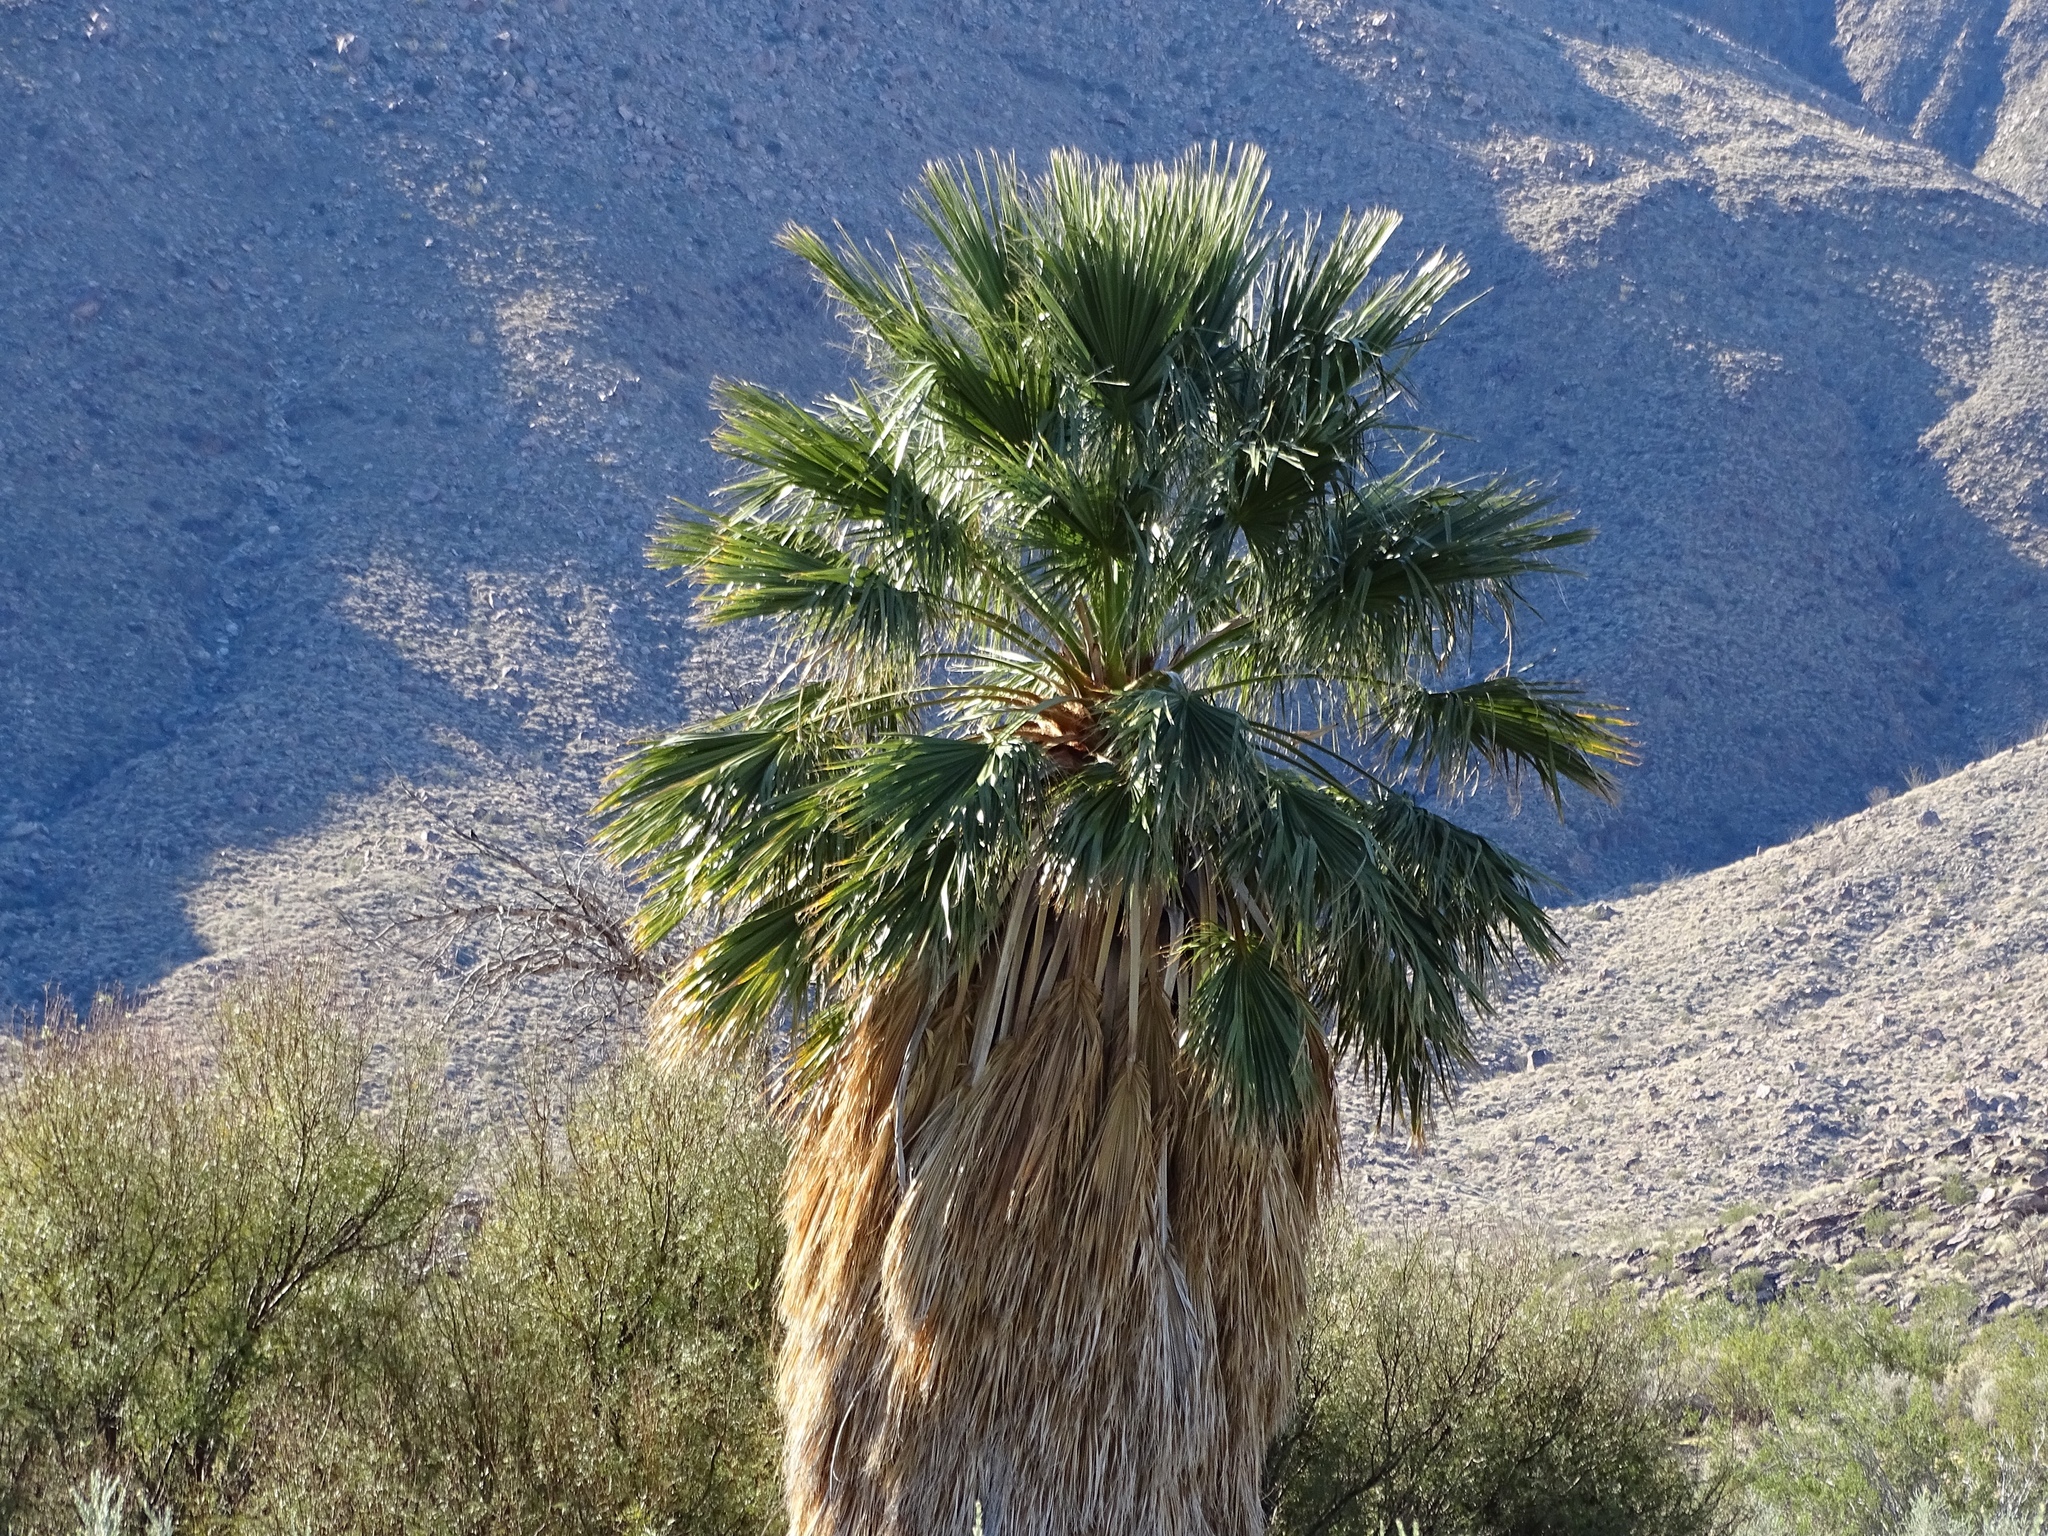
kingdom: Plantae
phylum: Tracheophyta
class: Liliopsida
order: Arecales
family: Arecaceae
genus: Washingtonia
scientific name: Washingtonia filifera
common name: California fan palm
